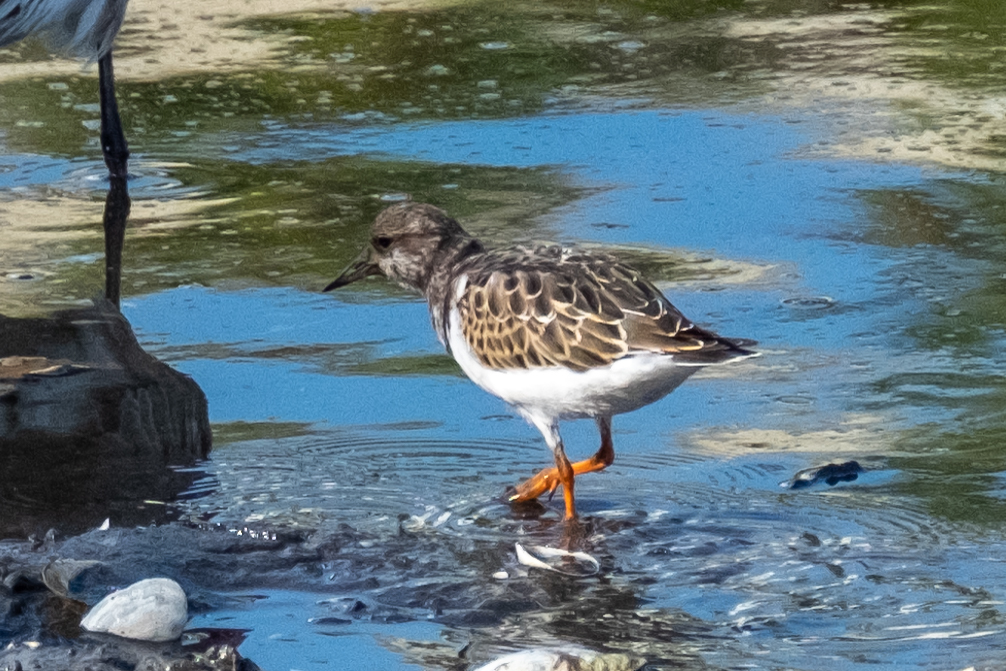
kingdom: Animalia
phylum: Chordata
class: Aves
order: Charadriiformes
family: Scolopacidae
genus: Arenaria
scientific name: Arenaria interpres
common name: Ruddy turnstone
